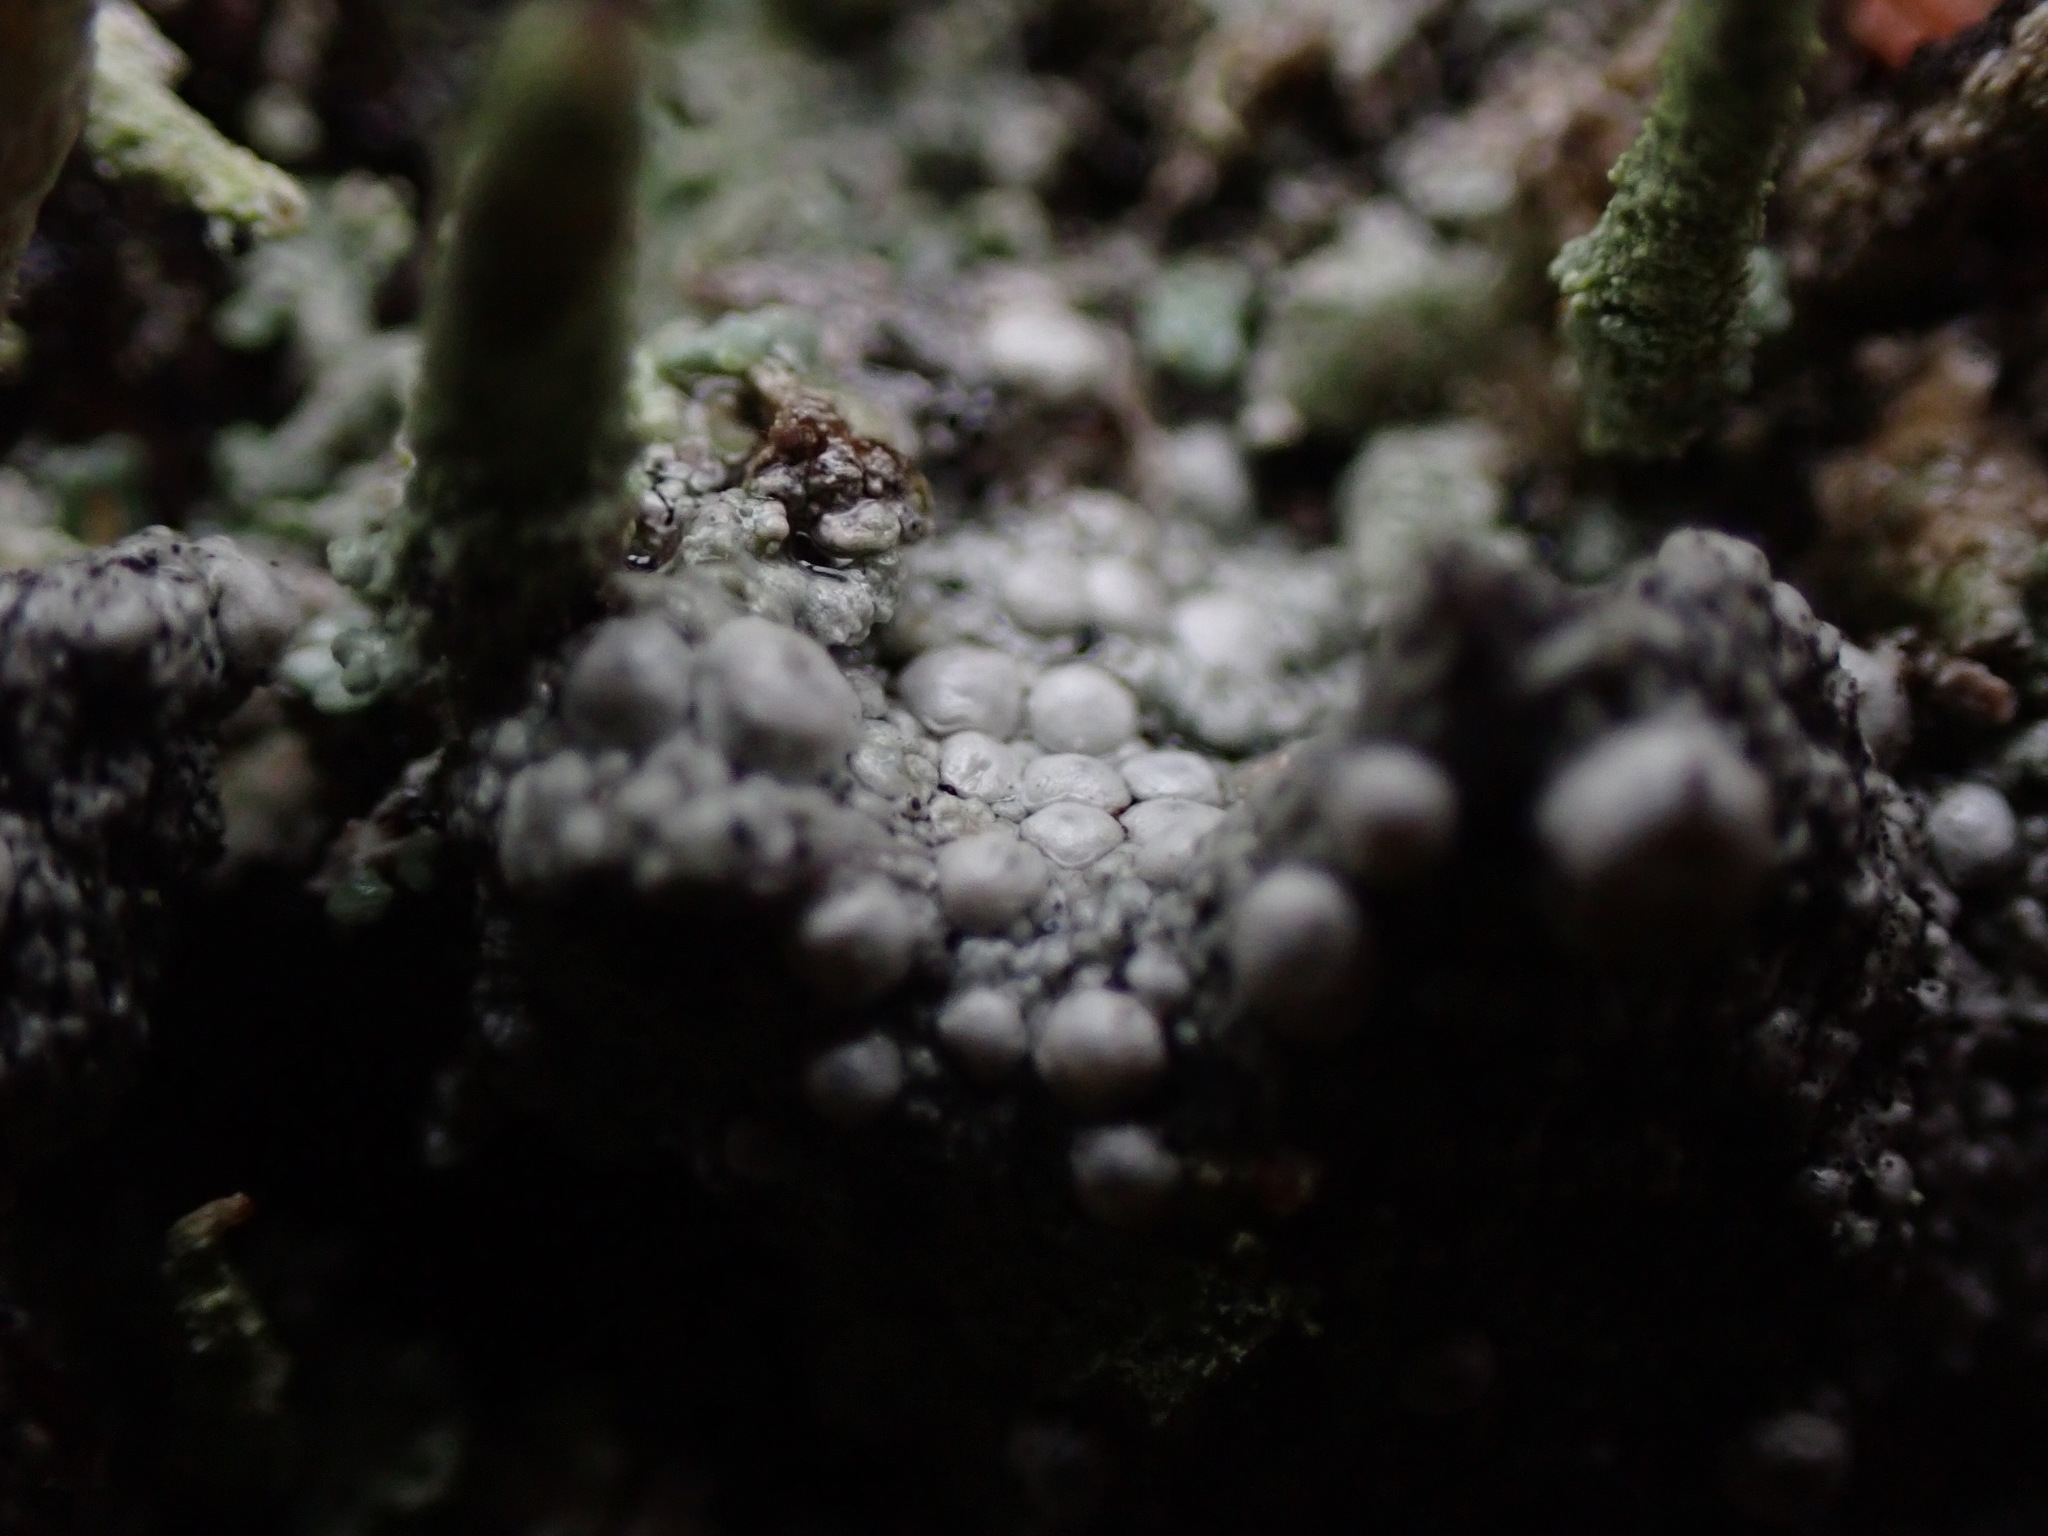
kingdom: Fungi
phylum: Ascomycota
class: Lecanoromycetes
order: Pertusariales
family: Ochrolechiaceae
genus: Ochrolechia
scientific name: Ochrolechia xanthostoma
